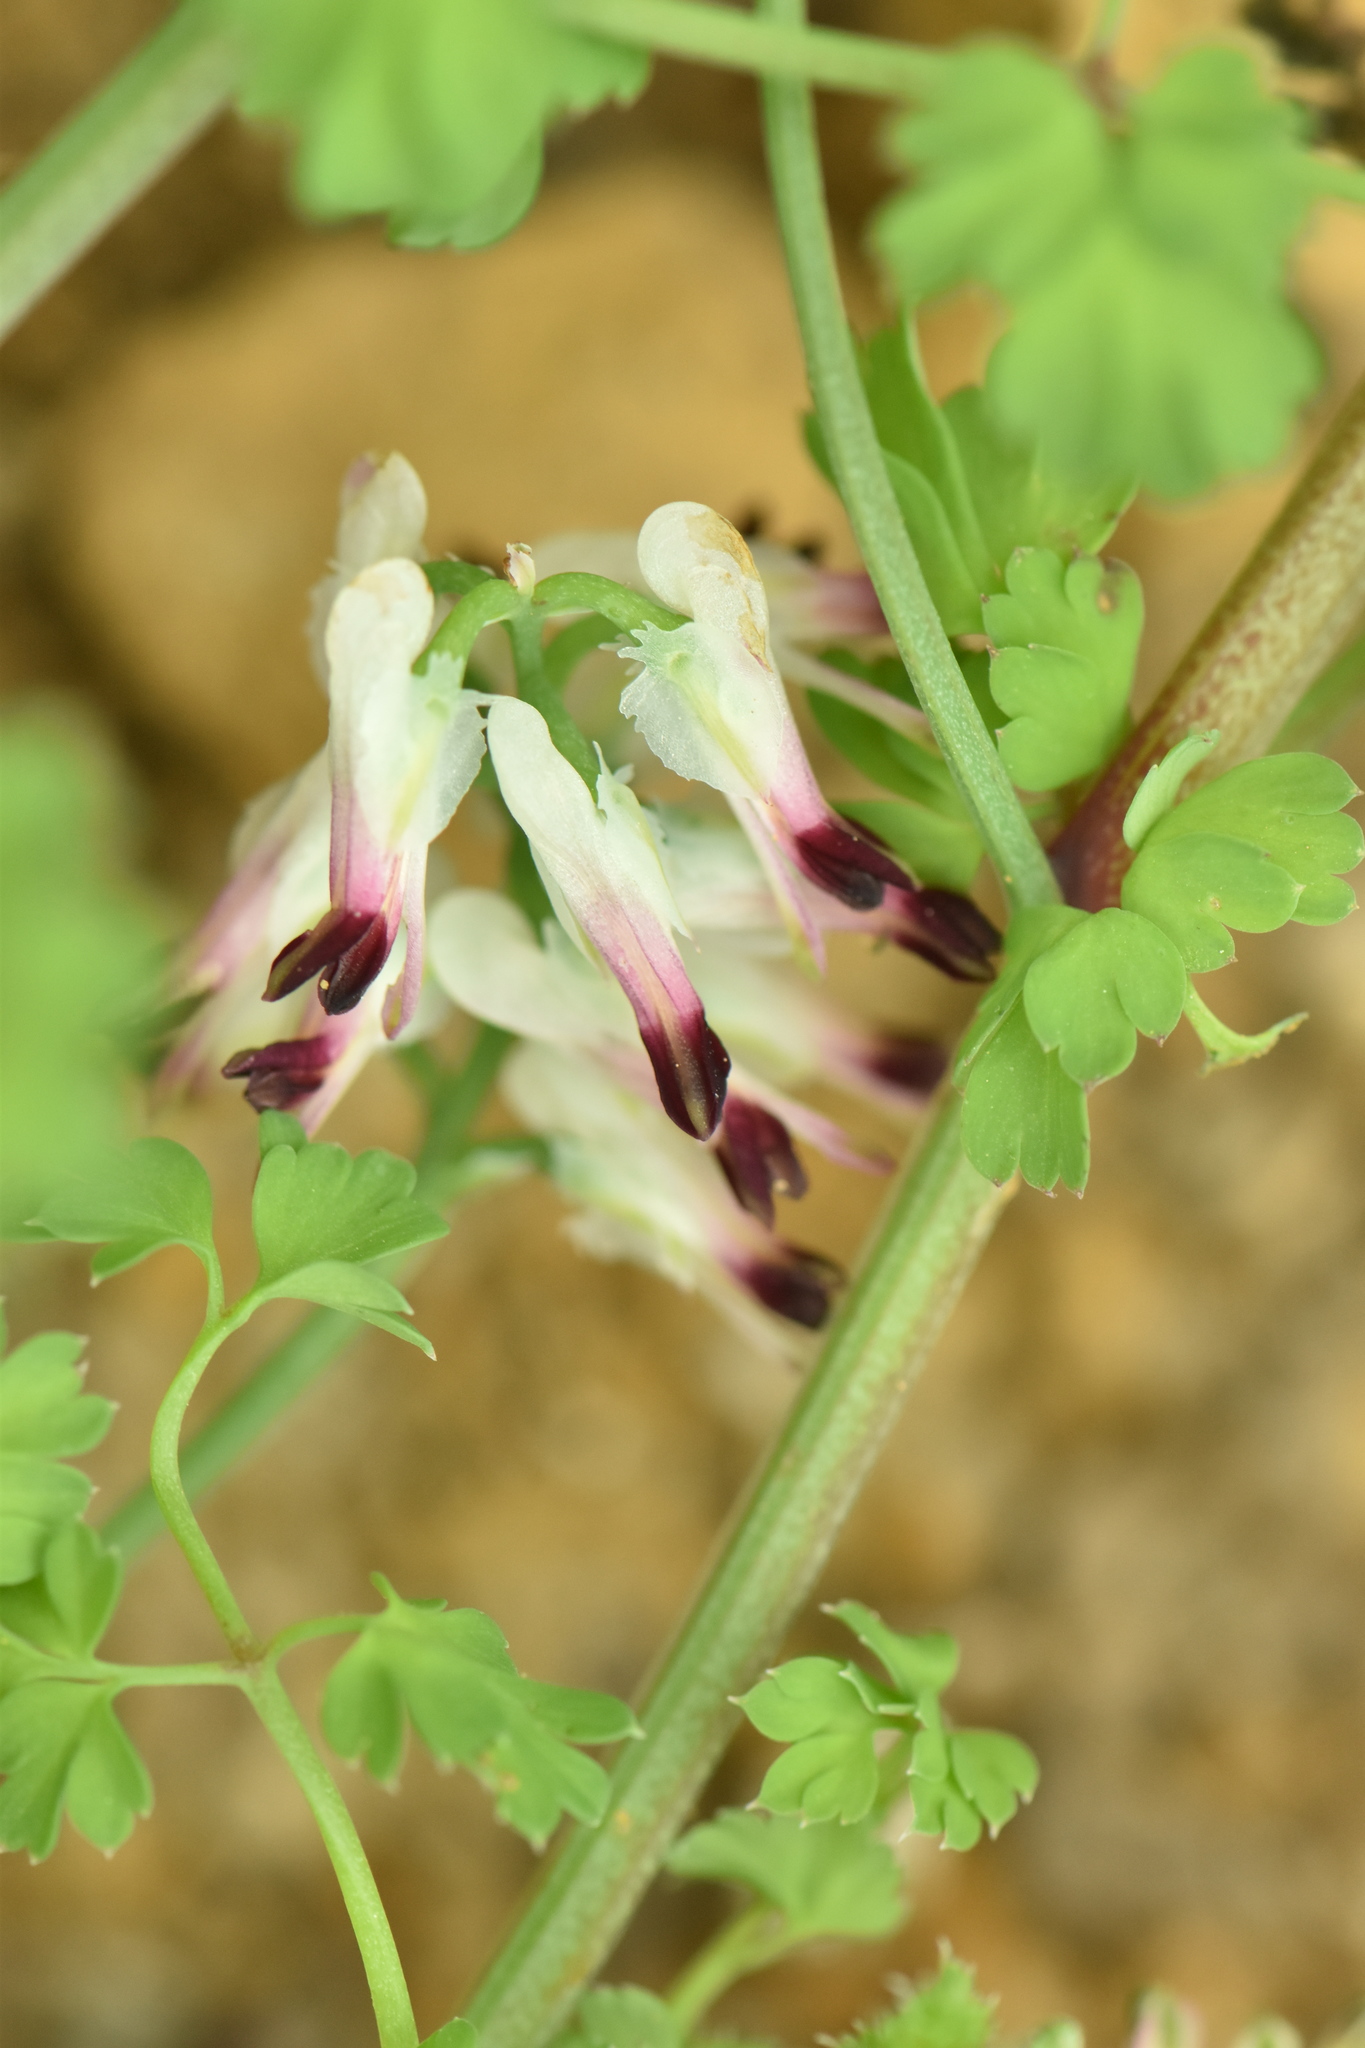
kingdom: Plantae
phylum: Tracheophyta
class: Magnoliopsida
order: Ranunculales
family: Papaveraceae
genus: Fumaria
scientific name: Fumaria capreolata
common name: White ramping-fumitory
